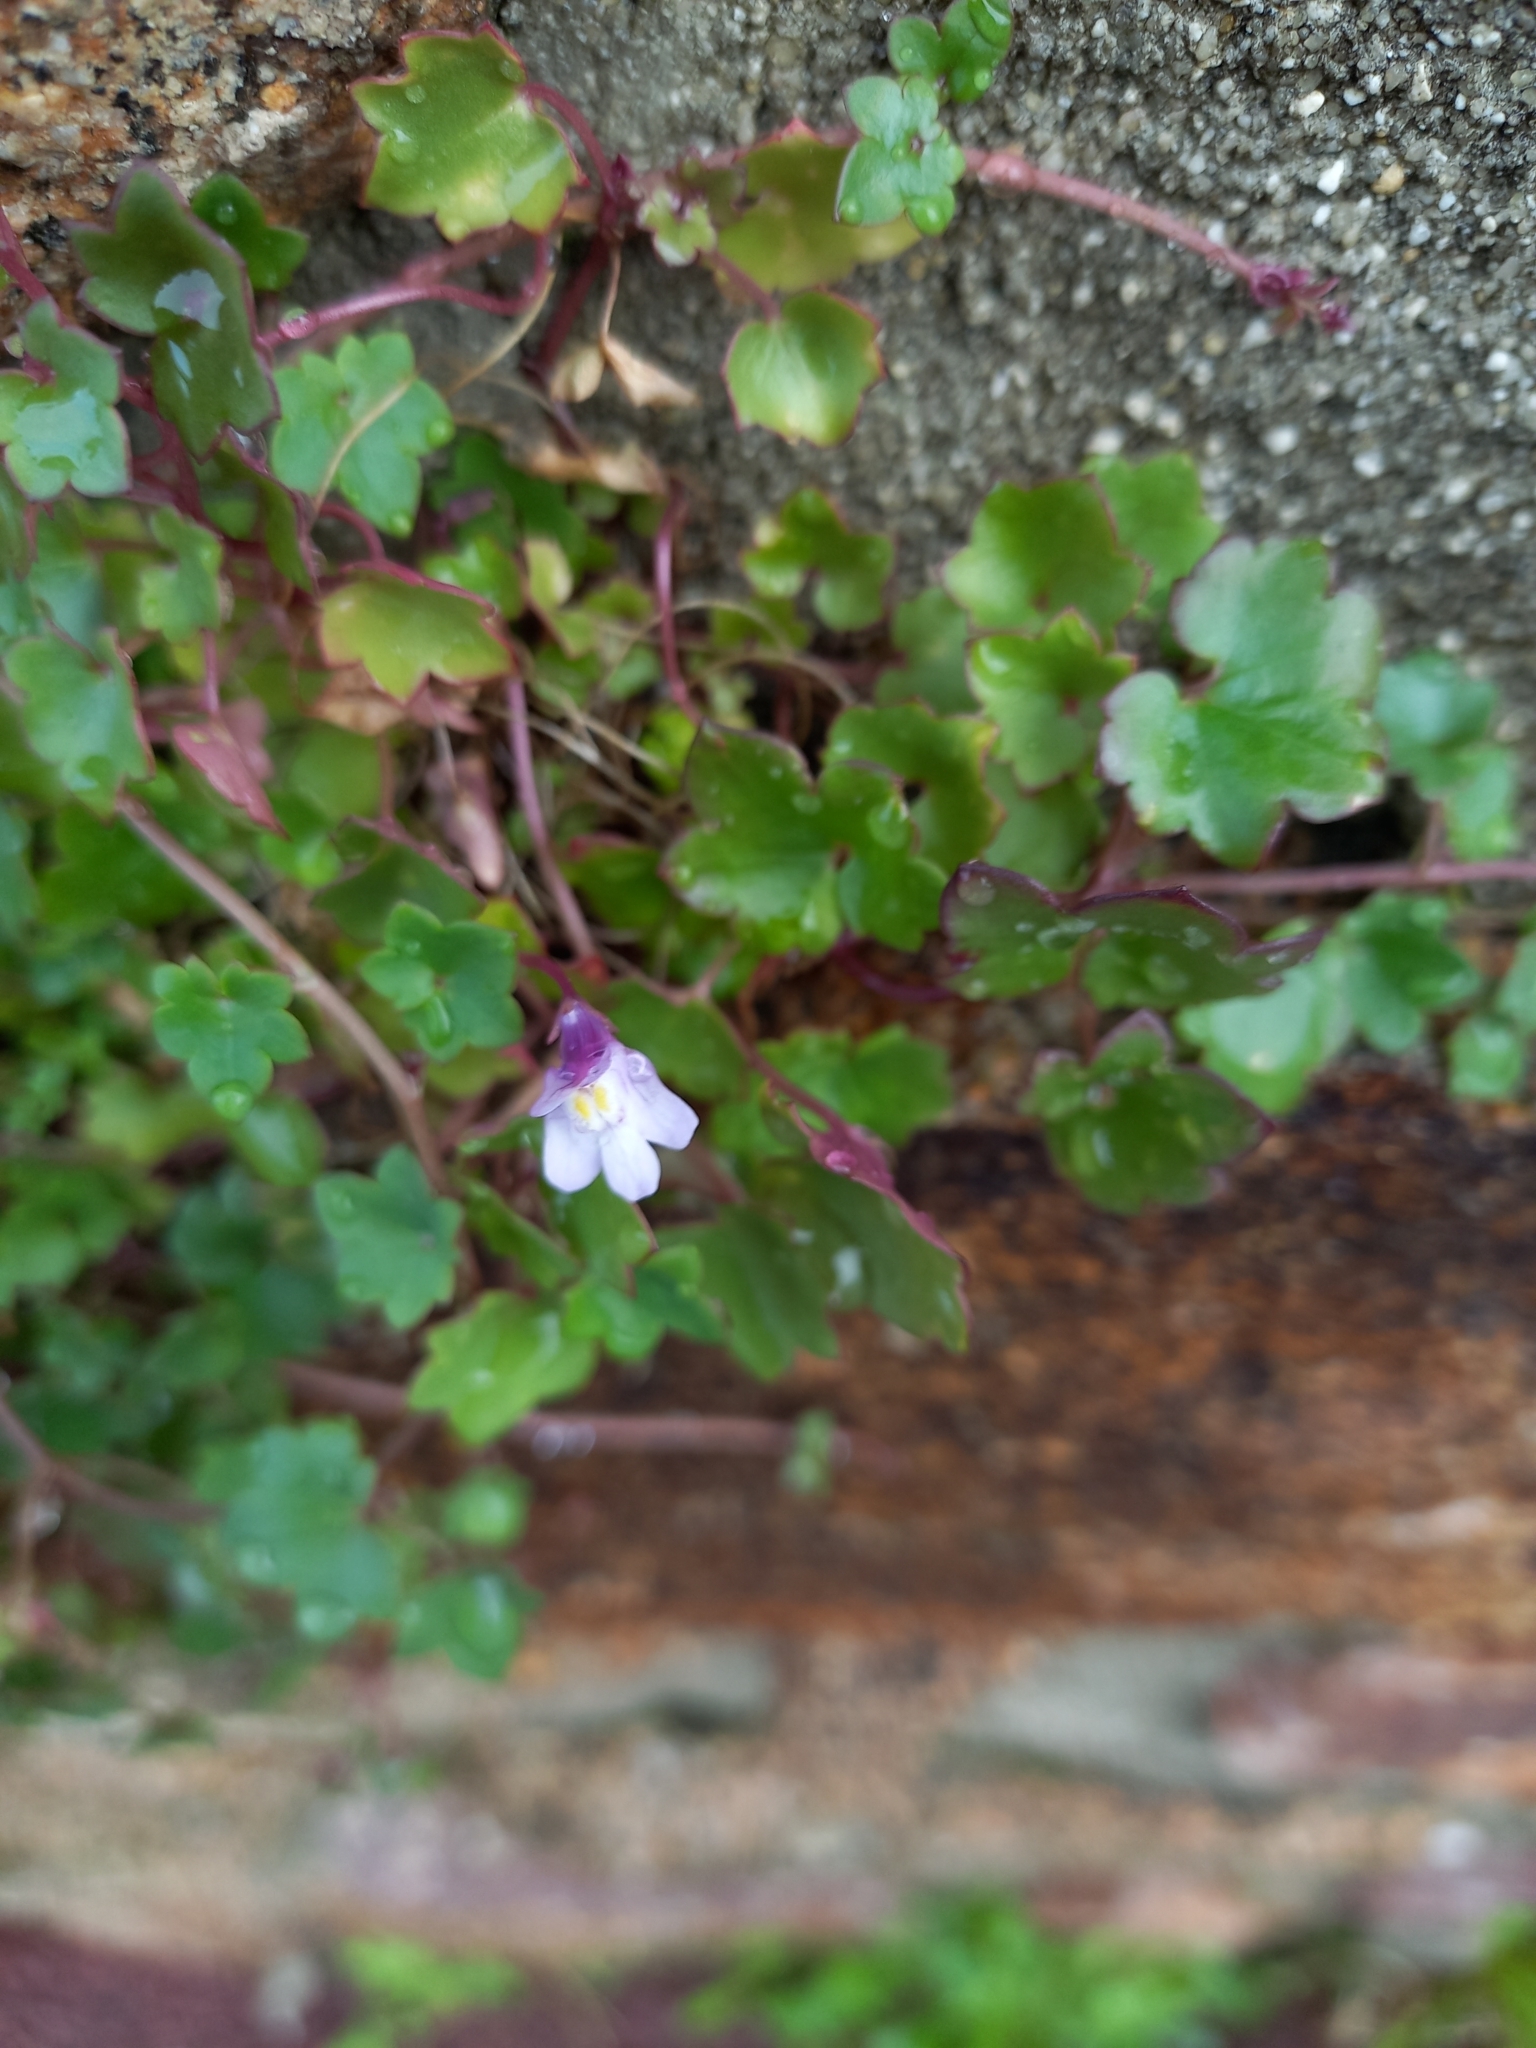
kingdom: Plantae
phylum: Tracheophyta
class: Magnoliopsida
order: Lamiales
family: Plantaginaceae
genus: Cymbalaria
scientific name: Cymbalaria muralis
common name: Ivy-leaved toadflax
